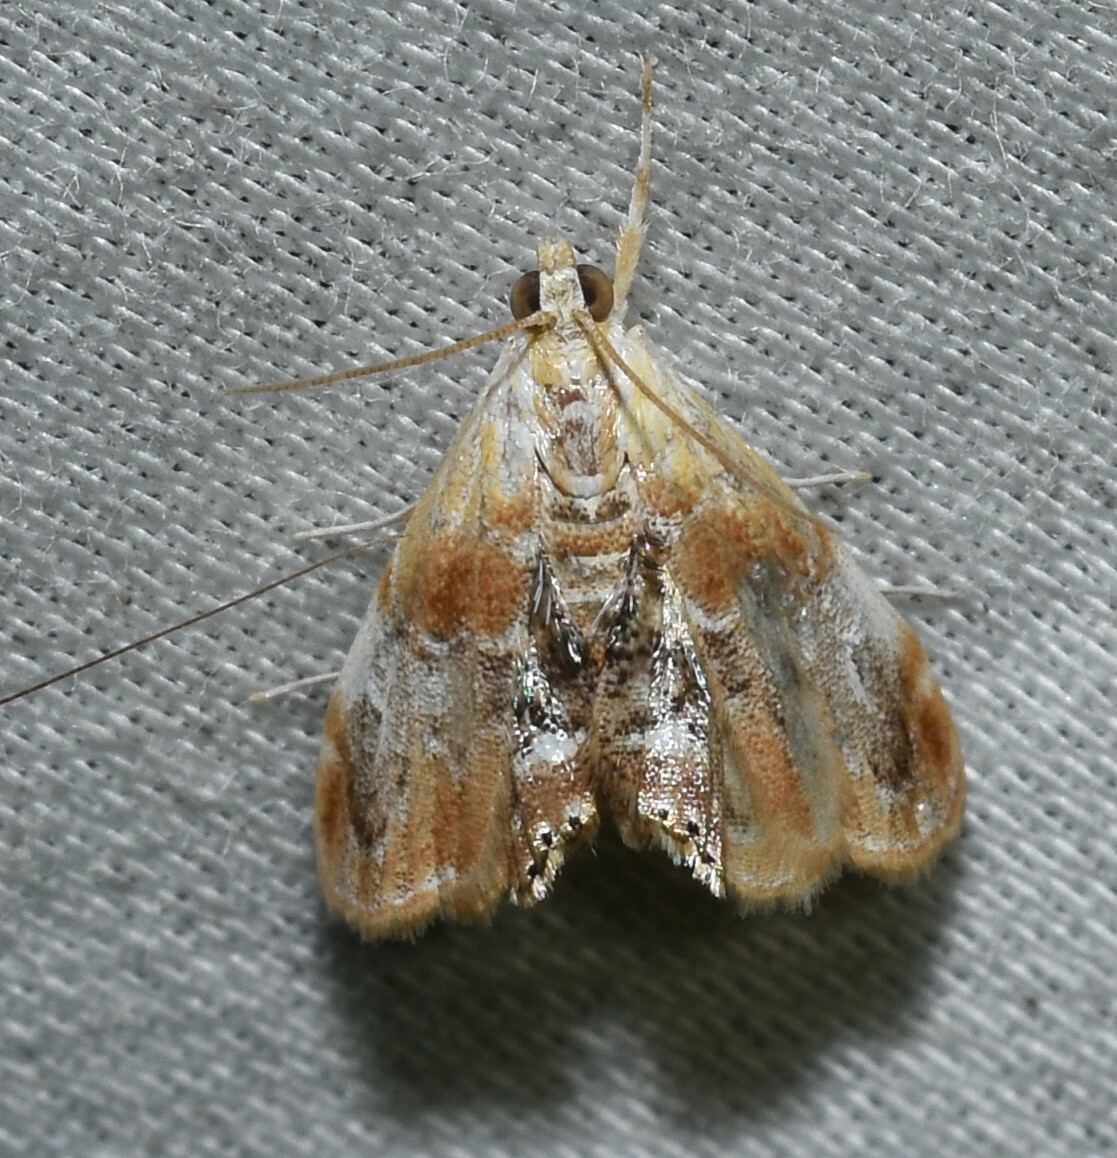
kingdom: Animalia
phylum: Arthropoda
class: Insecta
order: Lepidoptera
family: Crambidae
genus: Dicymolomia
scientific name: Dicymolomia julianalis
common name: Julia's dicymolomia moth
